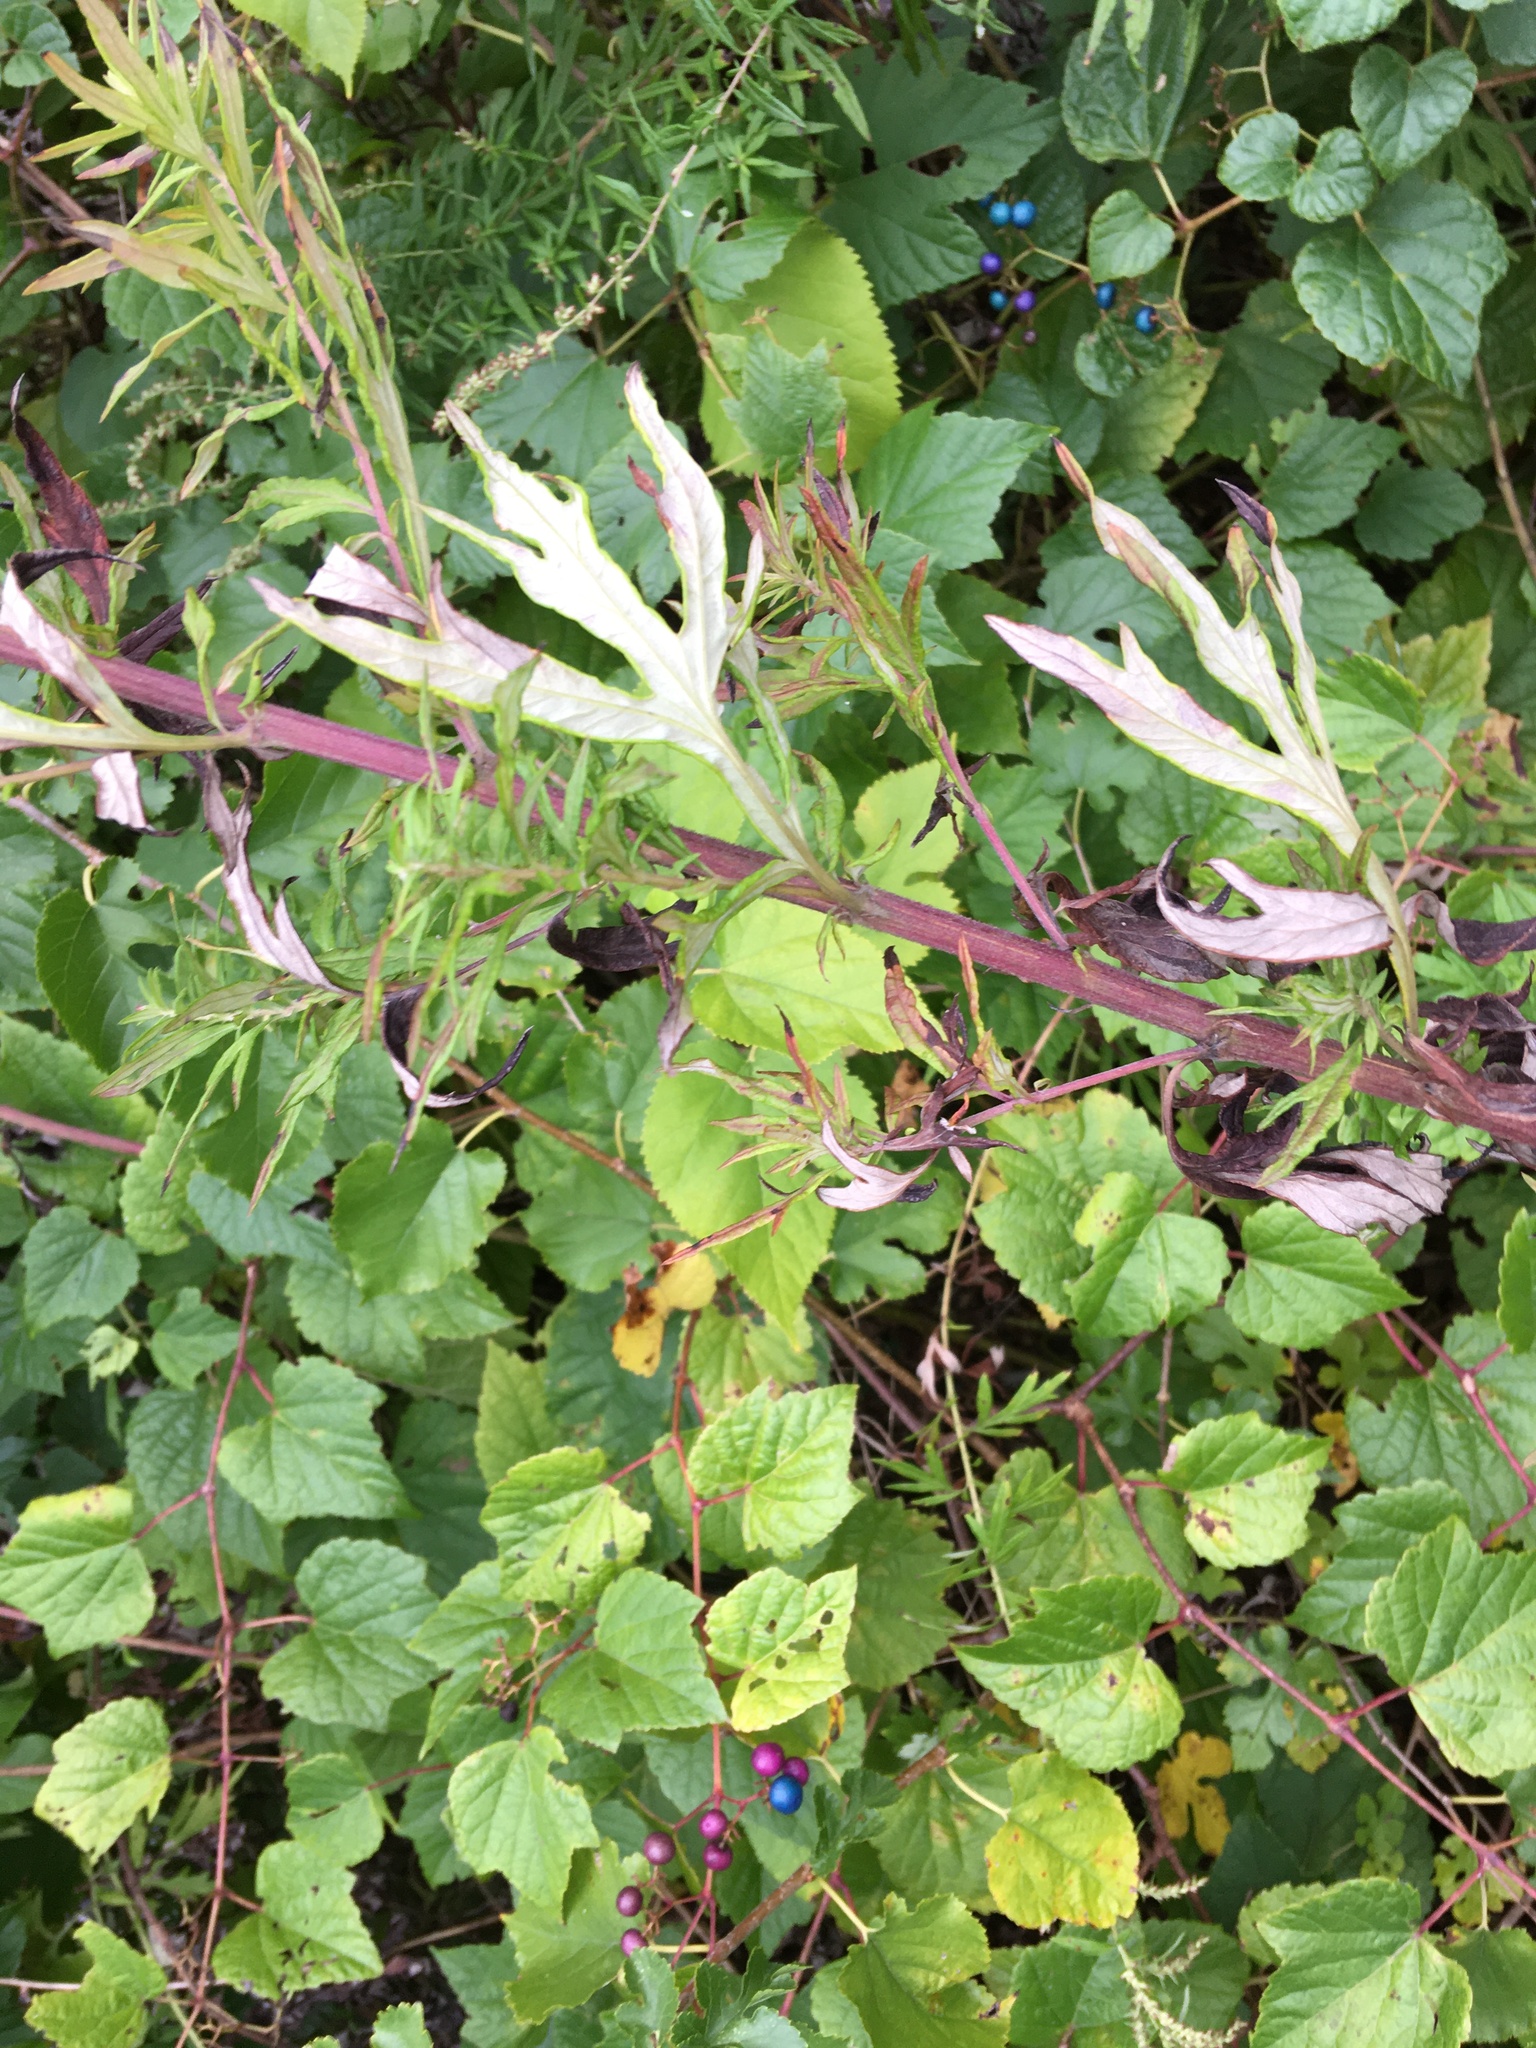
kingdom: Plantae
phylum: Tracheophyta
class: Magnoliopsida
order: Asterales
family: Asteraceae
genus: Artemisia
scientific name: Artemisia vulgaris
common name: Mugwort
